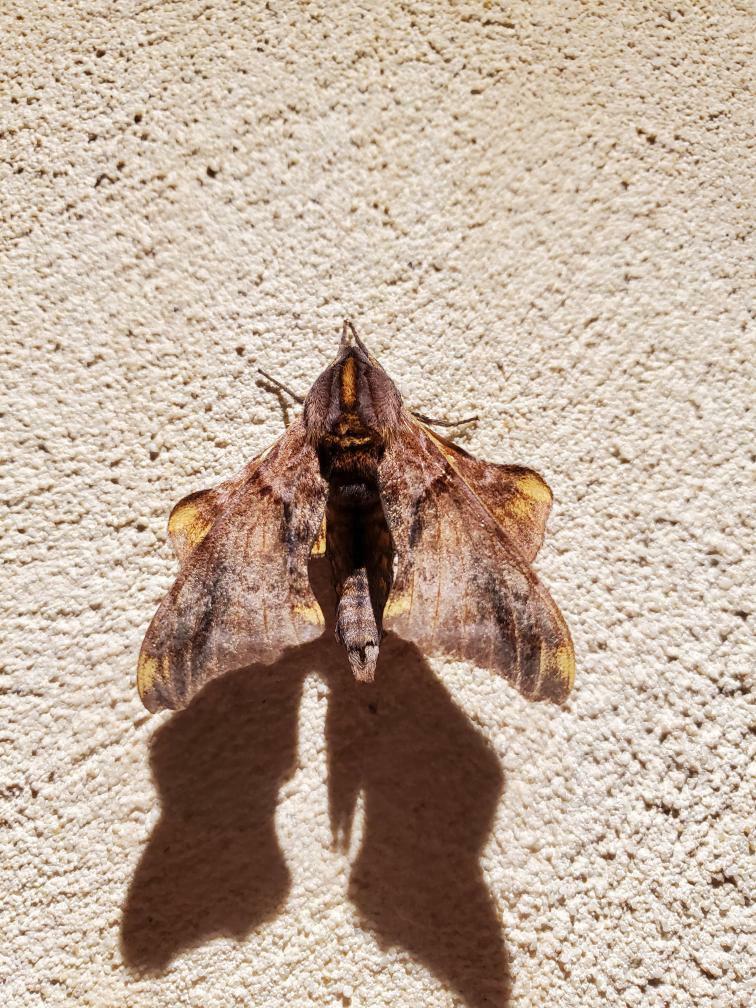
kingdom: Animalia
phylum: Arthropoda
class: Insecta
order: Lepidoptera
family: Sphingidae
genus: Paonias
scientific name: Paonias myops
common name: Small-eyed sphinx
